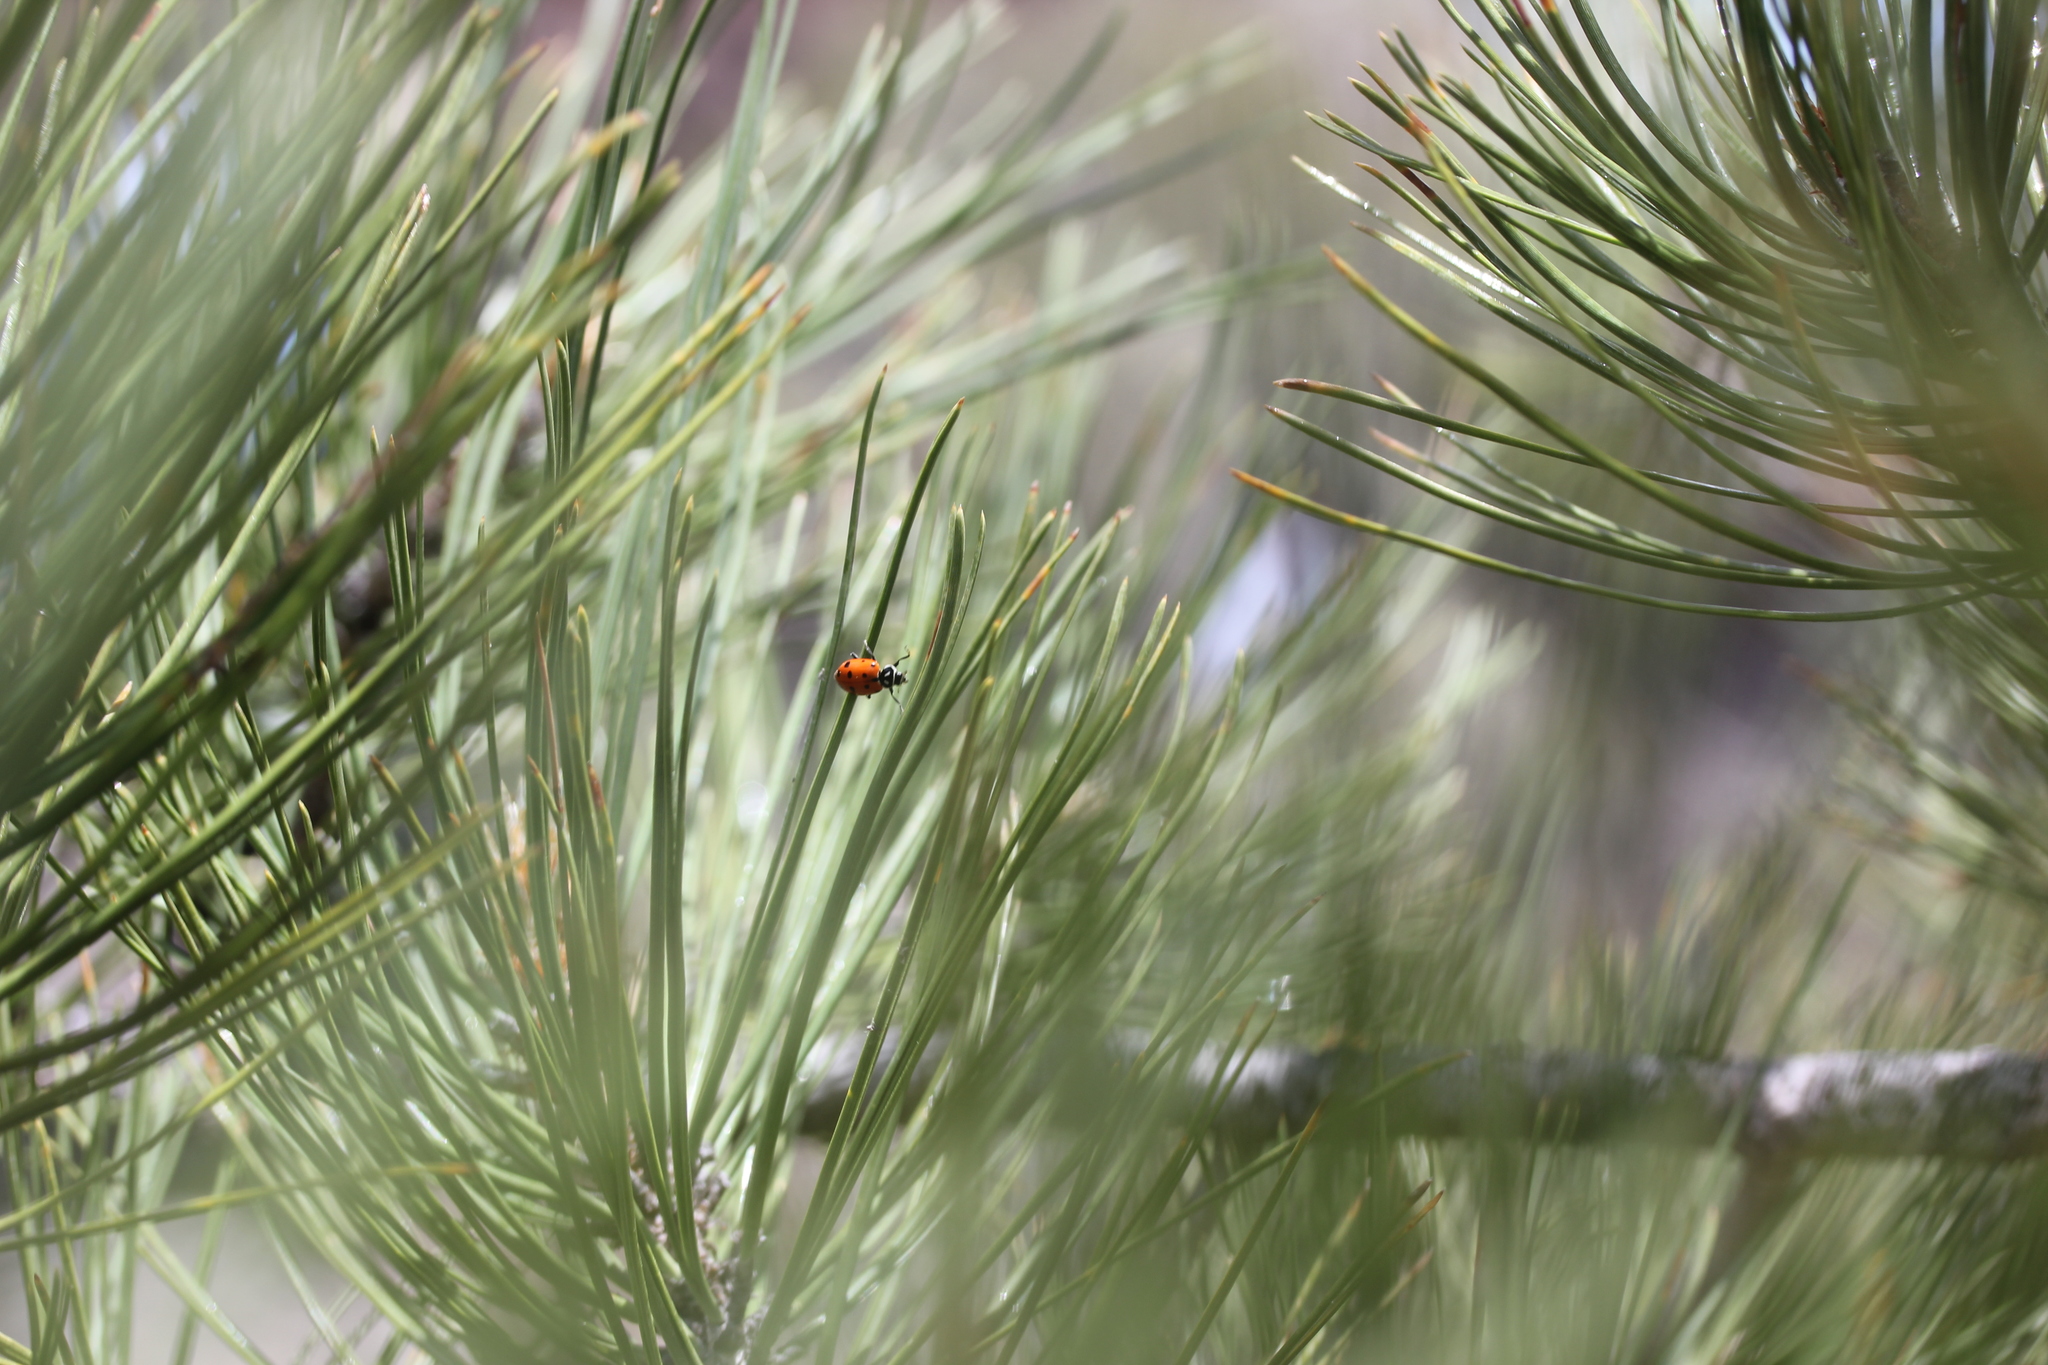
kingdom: Plantae
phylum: Tracheophyta
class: Pinopsida
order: Pinales
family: Pinaceae
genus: Pinus
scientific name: Pinus ponderosa
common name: Western yellow-pine
